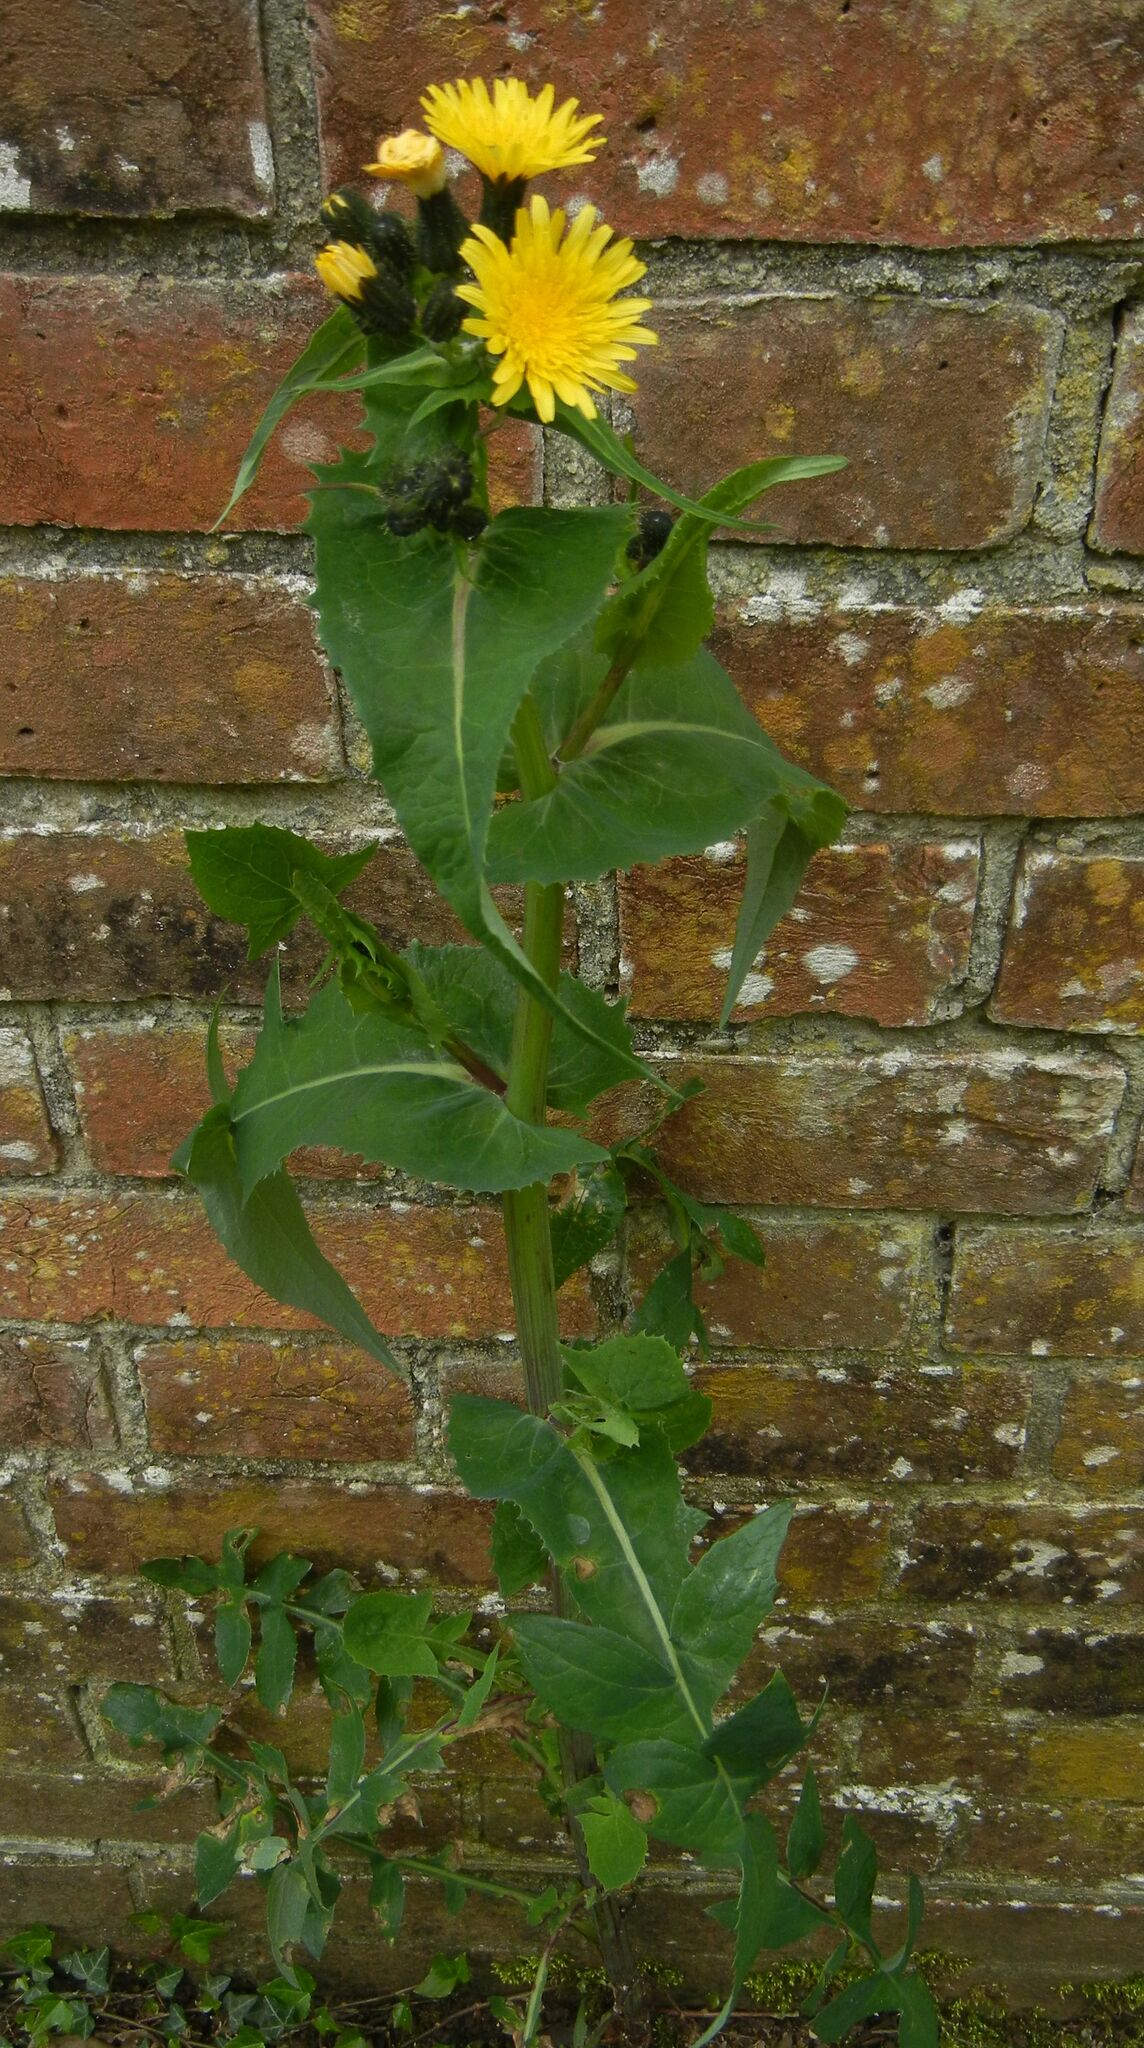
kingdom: Plantae
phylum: Tracheophyta
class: Magnoliopsida
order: Asterales
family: Asteraceae
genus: Sonchus
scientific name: Sonchus oleraceus
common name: Common sowthistle
